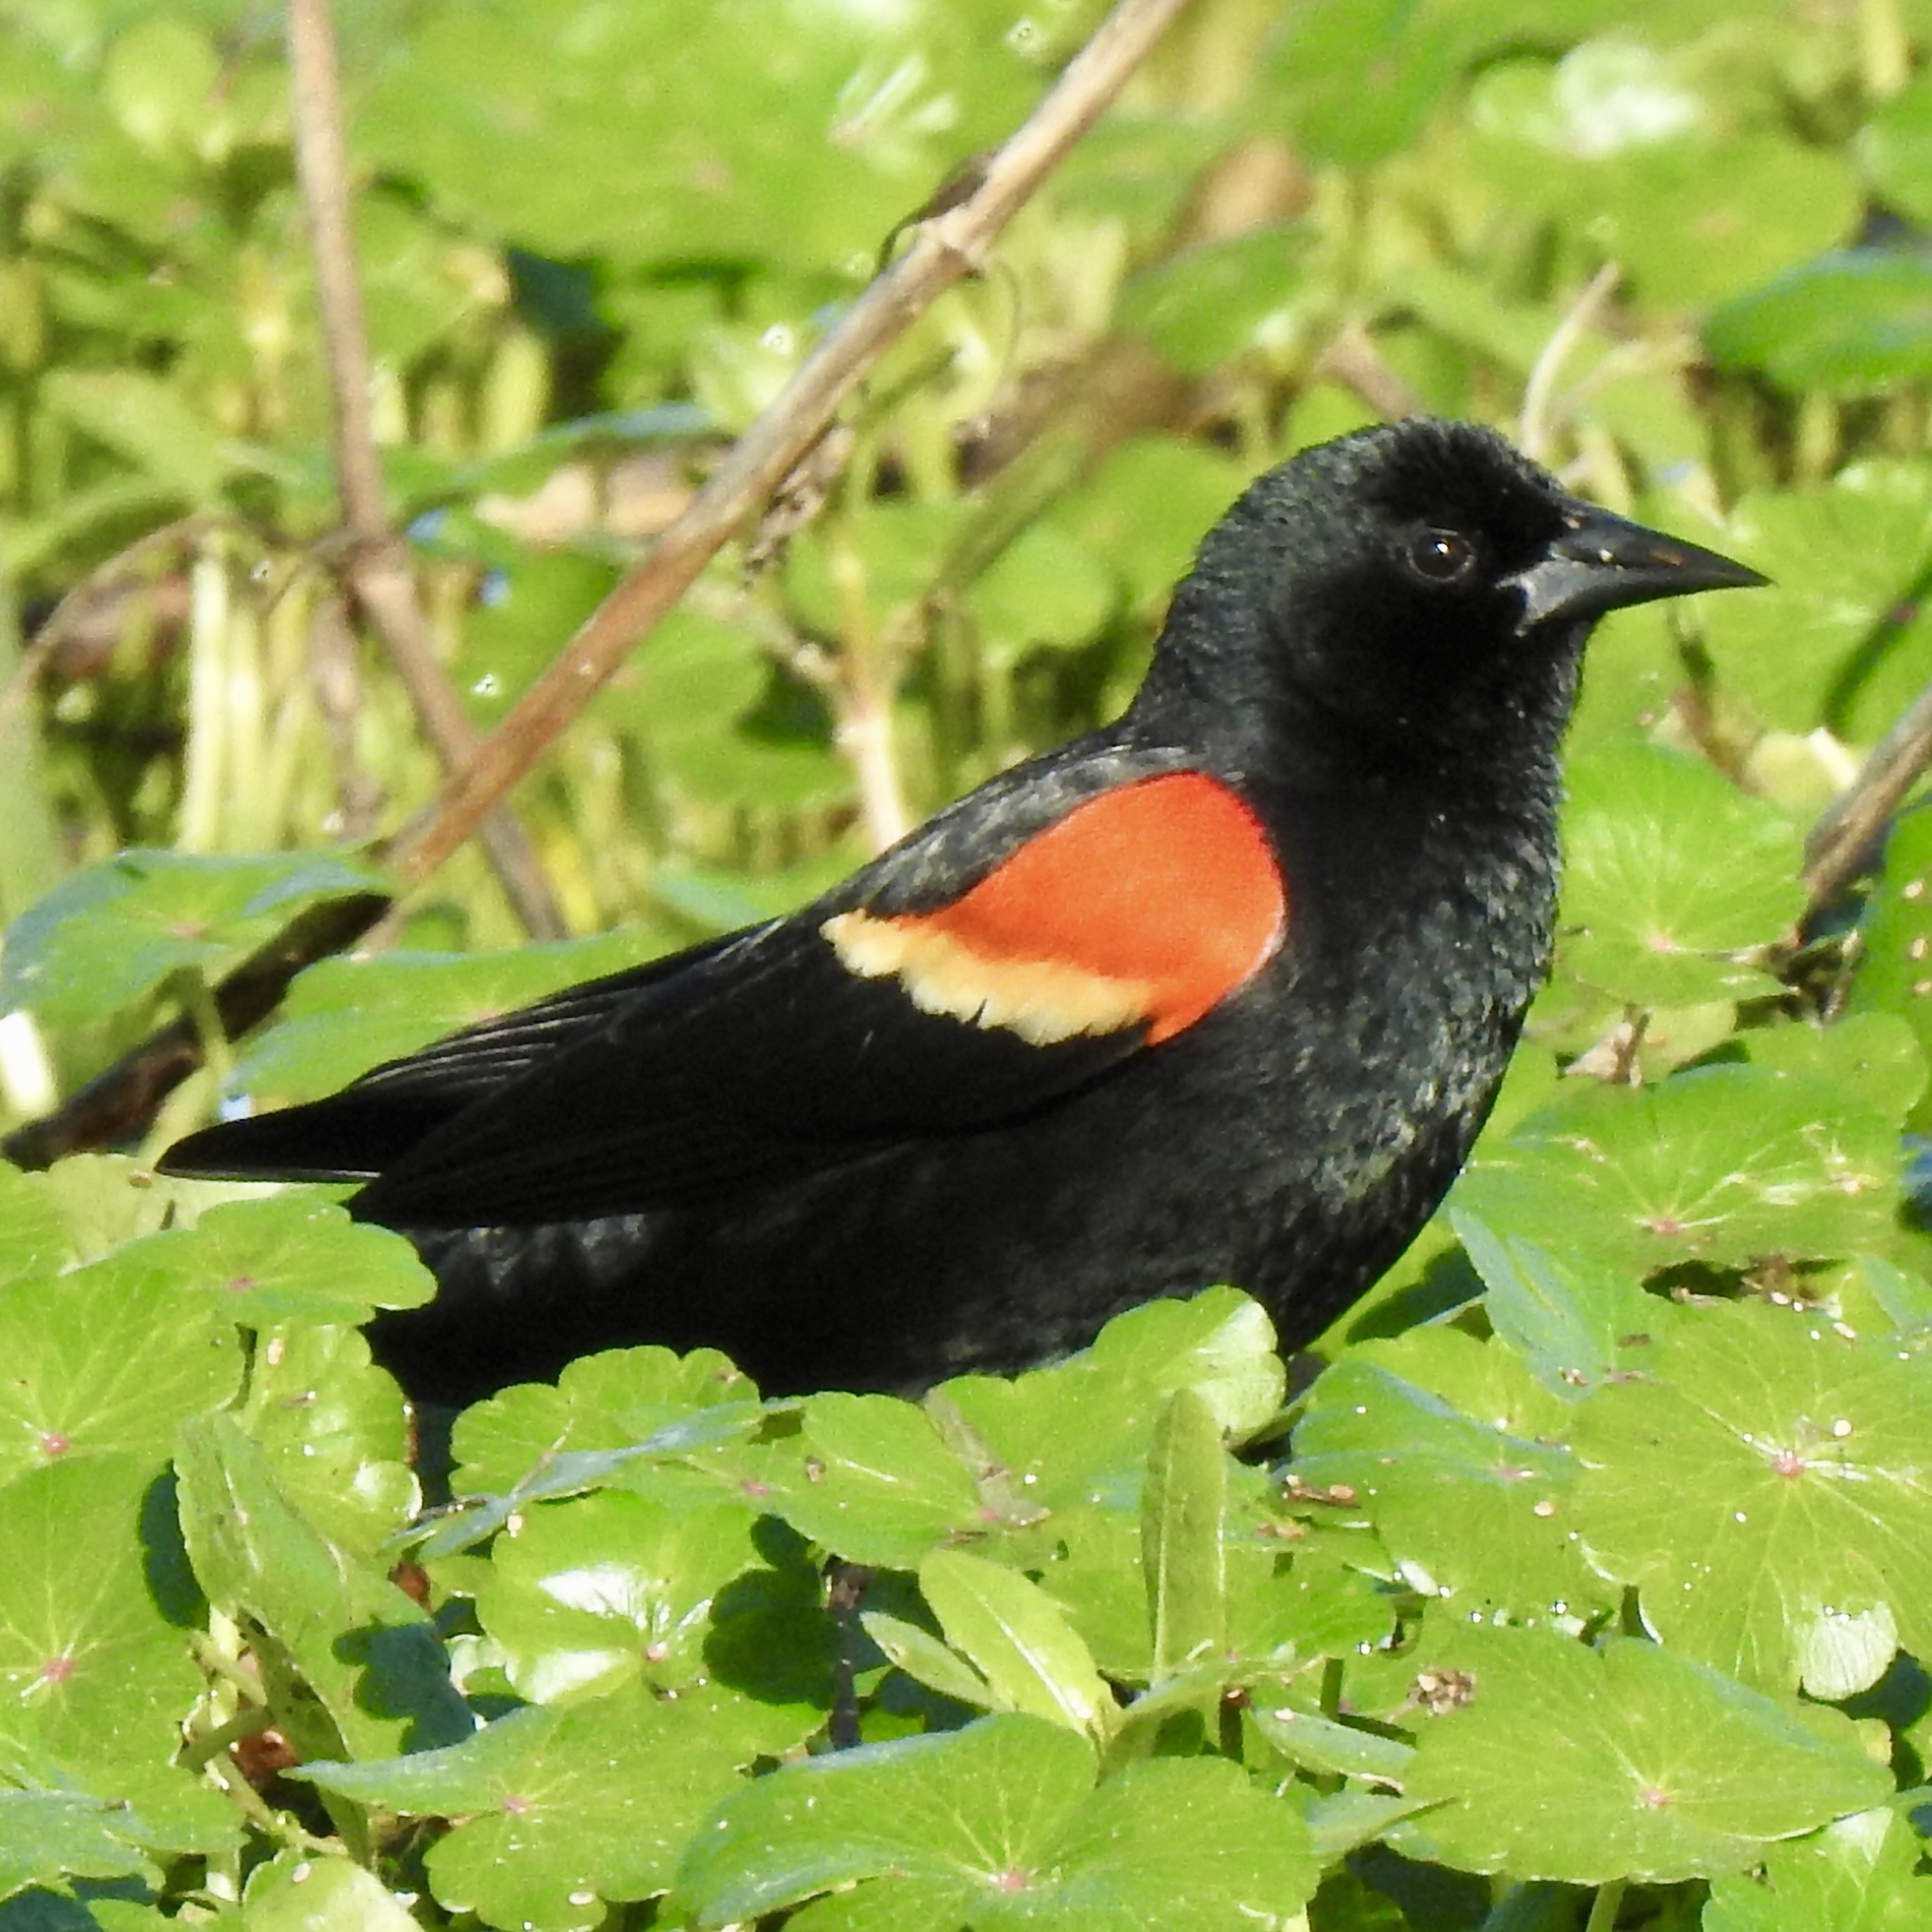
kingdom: Animalia
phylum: Chordata
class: Aves
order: Passeriformes
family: Icteridae
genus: Agelaius
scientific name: Agelaius phoeniceus
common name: Red-winged blackbird
